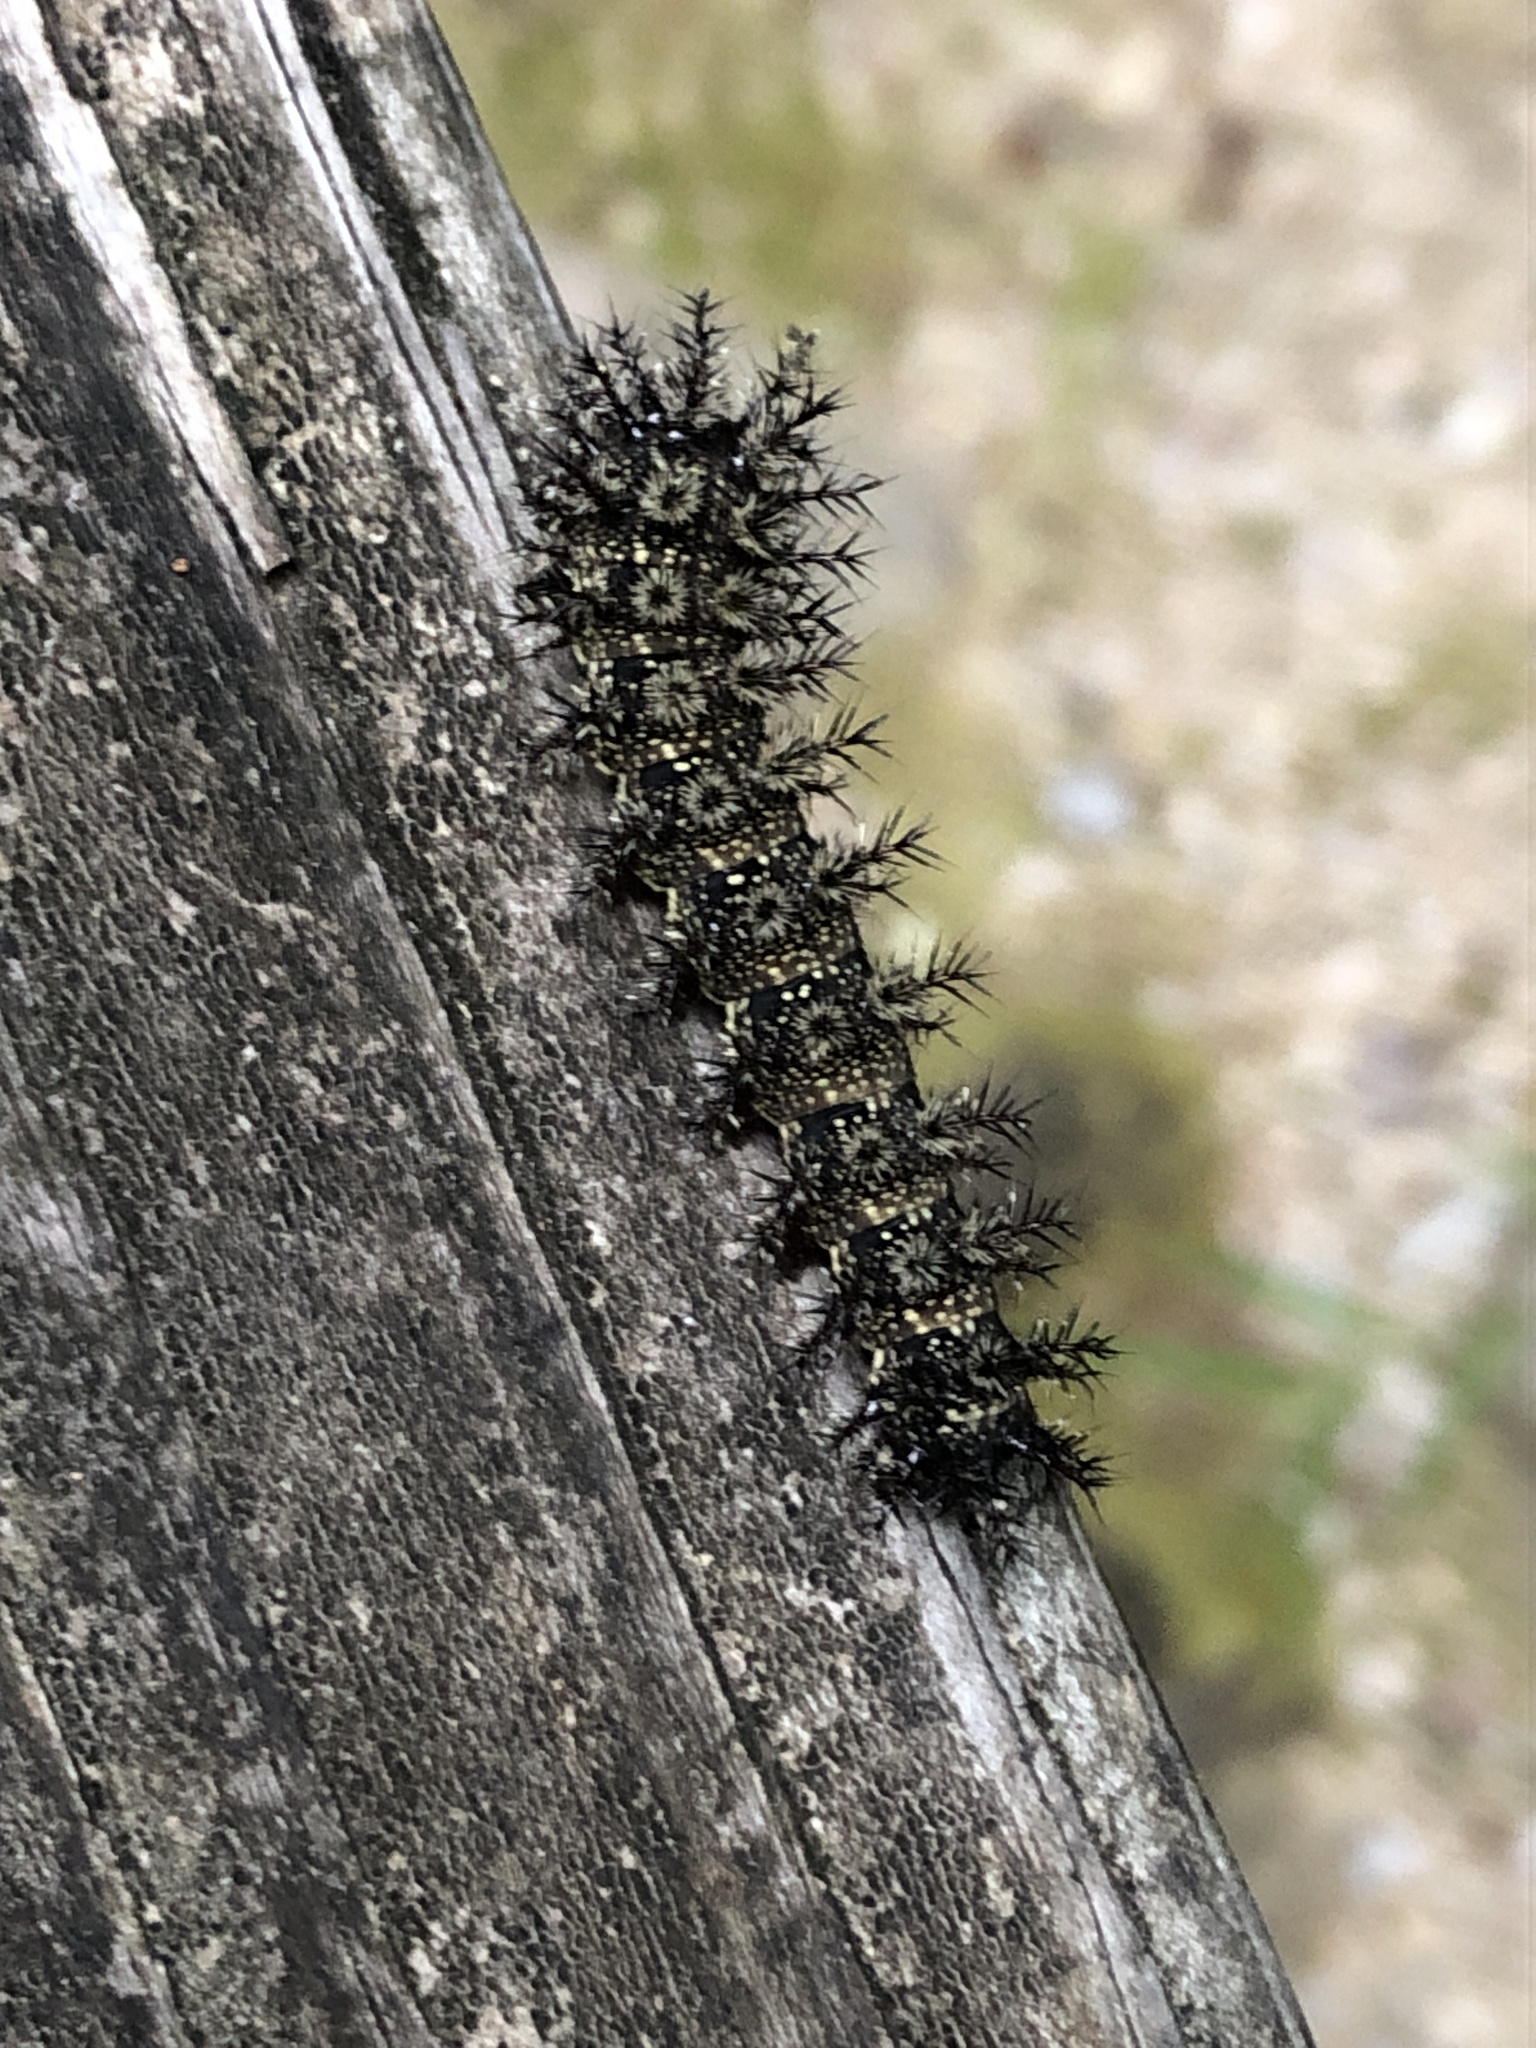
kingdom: Animalia
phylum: Arthropoda
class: Insecta
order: Lepidoptera
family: Saturniidae
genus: Hemileuca
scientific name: Hemileuca maia
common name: Eastern buckmoth
